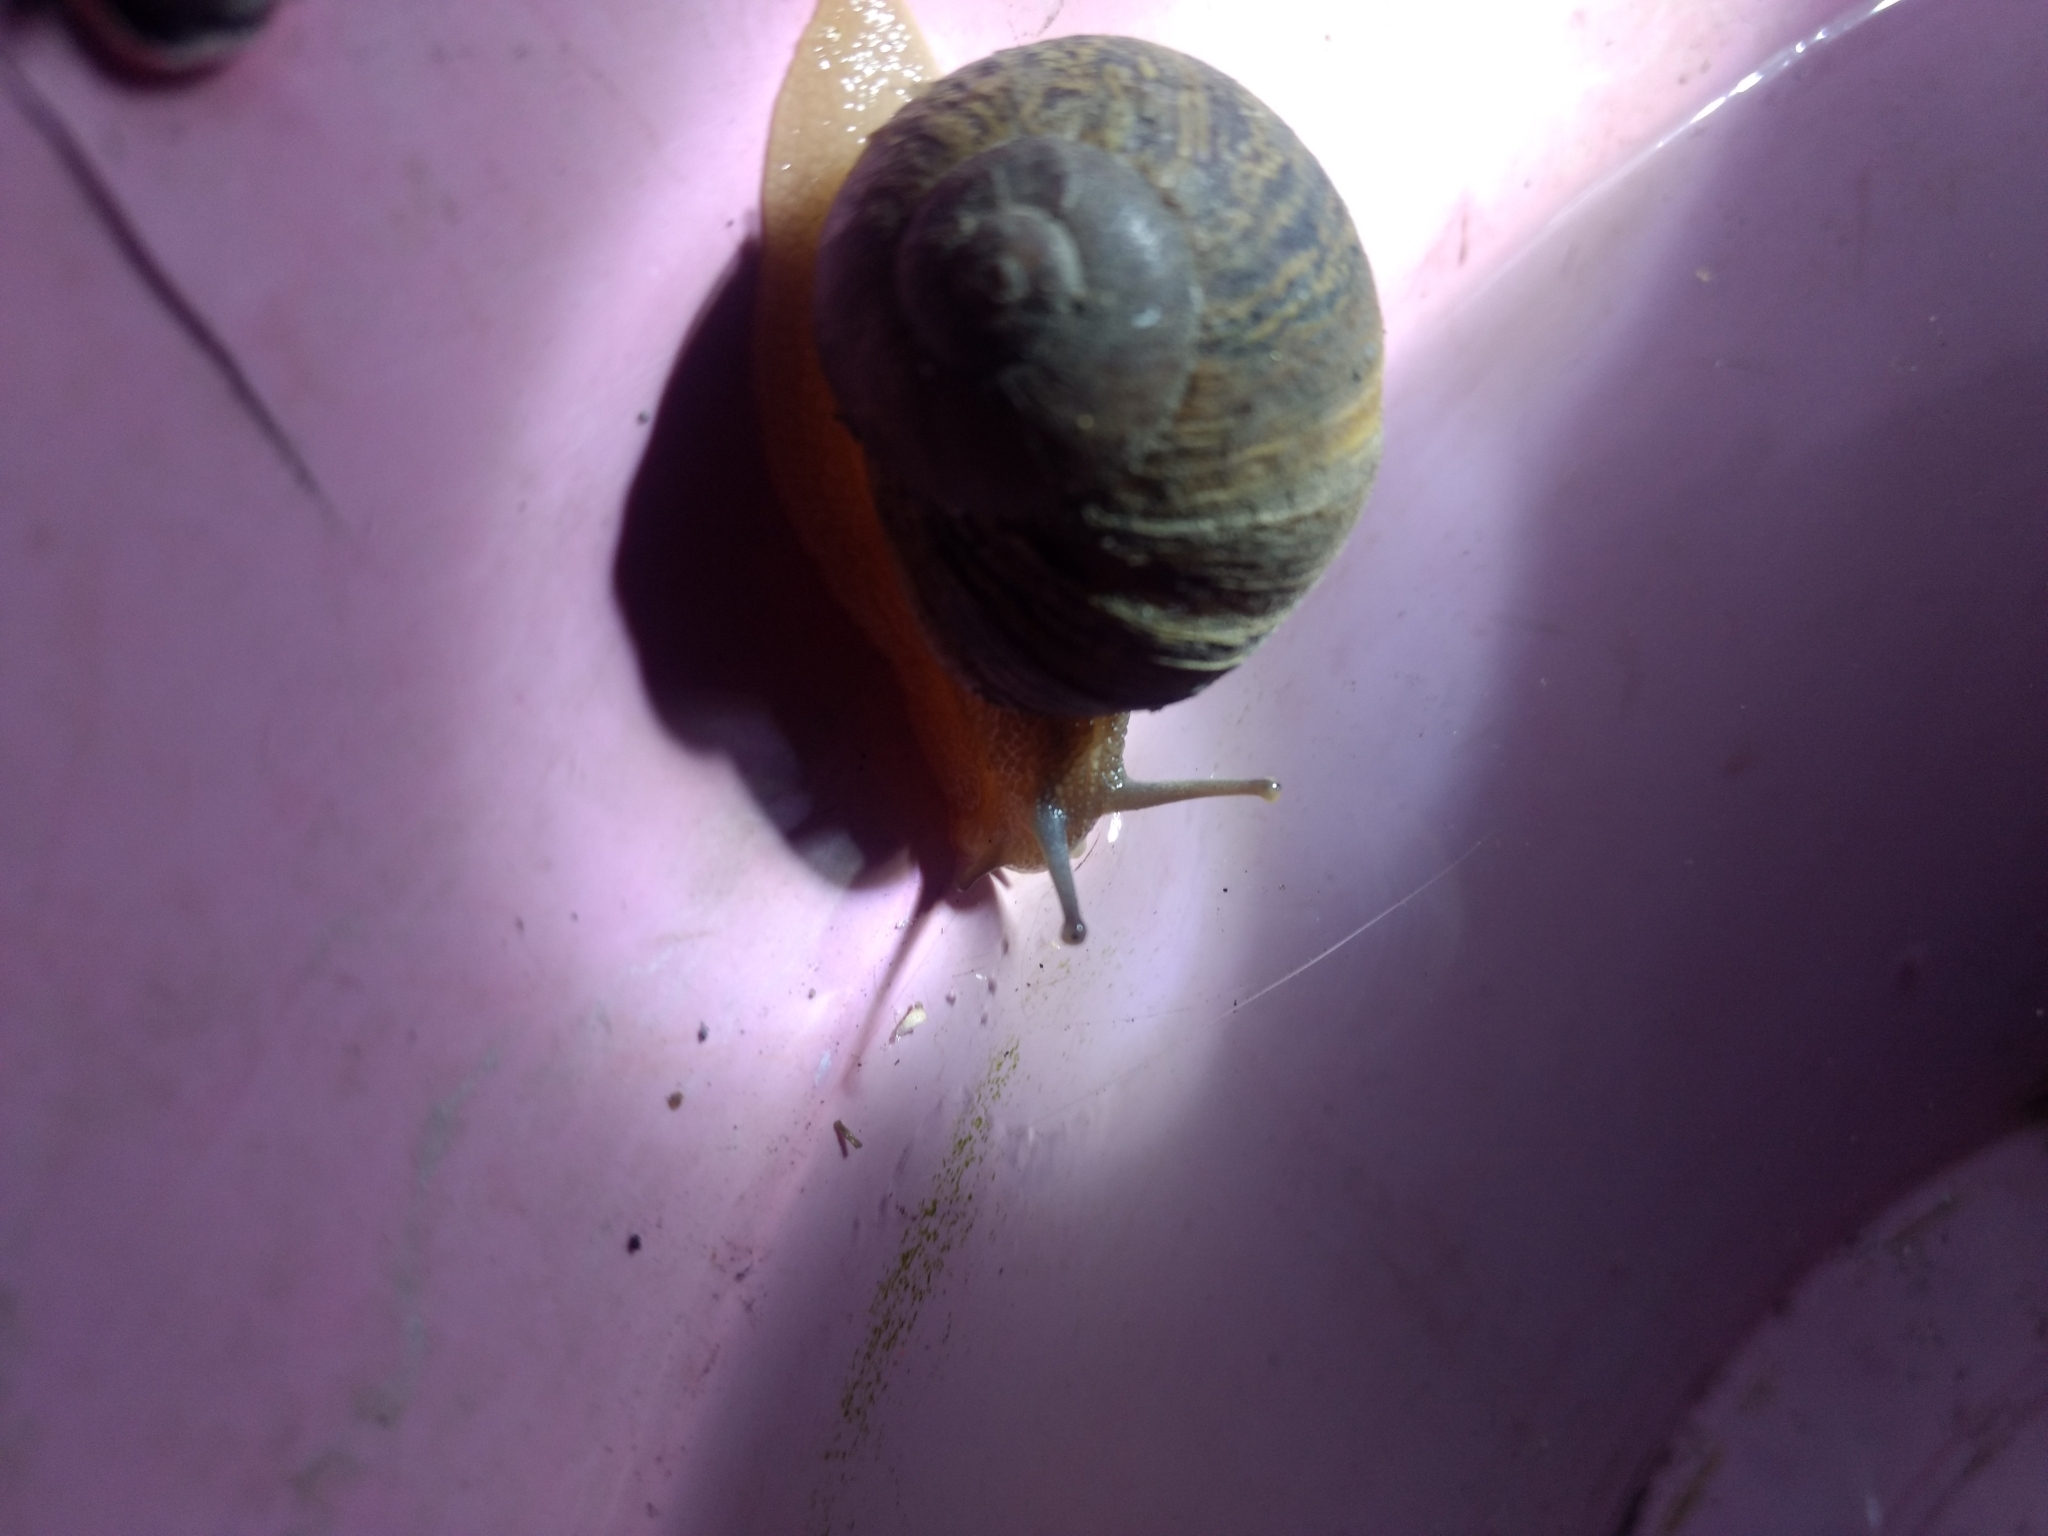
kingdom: Animalia
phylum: Mollusca
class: Gastropoda
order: Stylommatophora
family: Helicidae
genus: Cornu
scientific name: Cornu aspersum
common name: Brown garden snail
